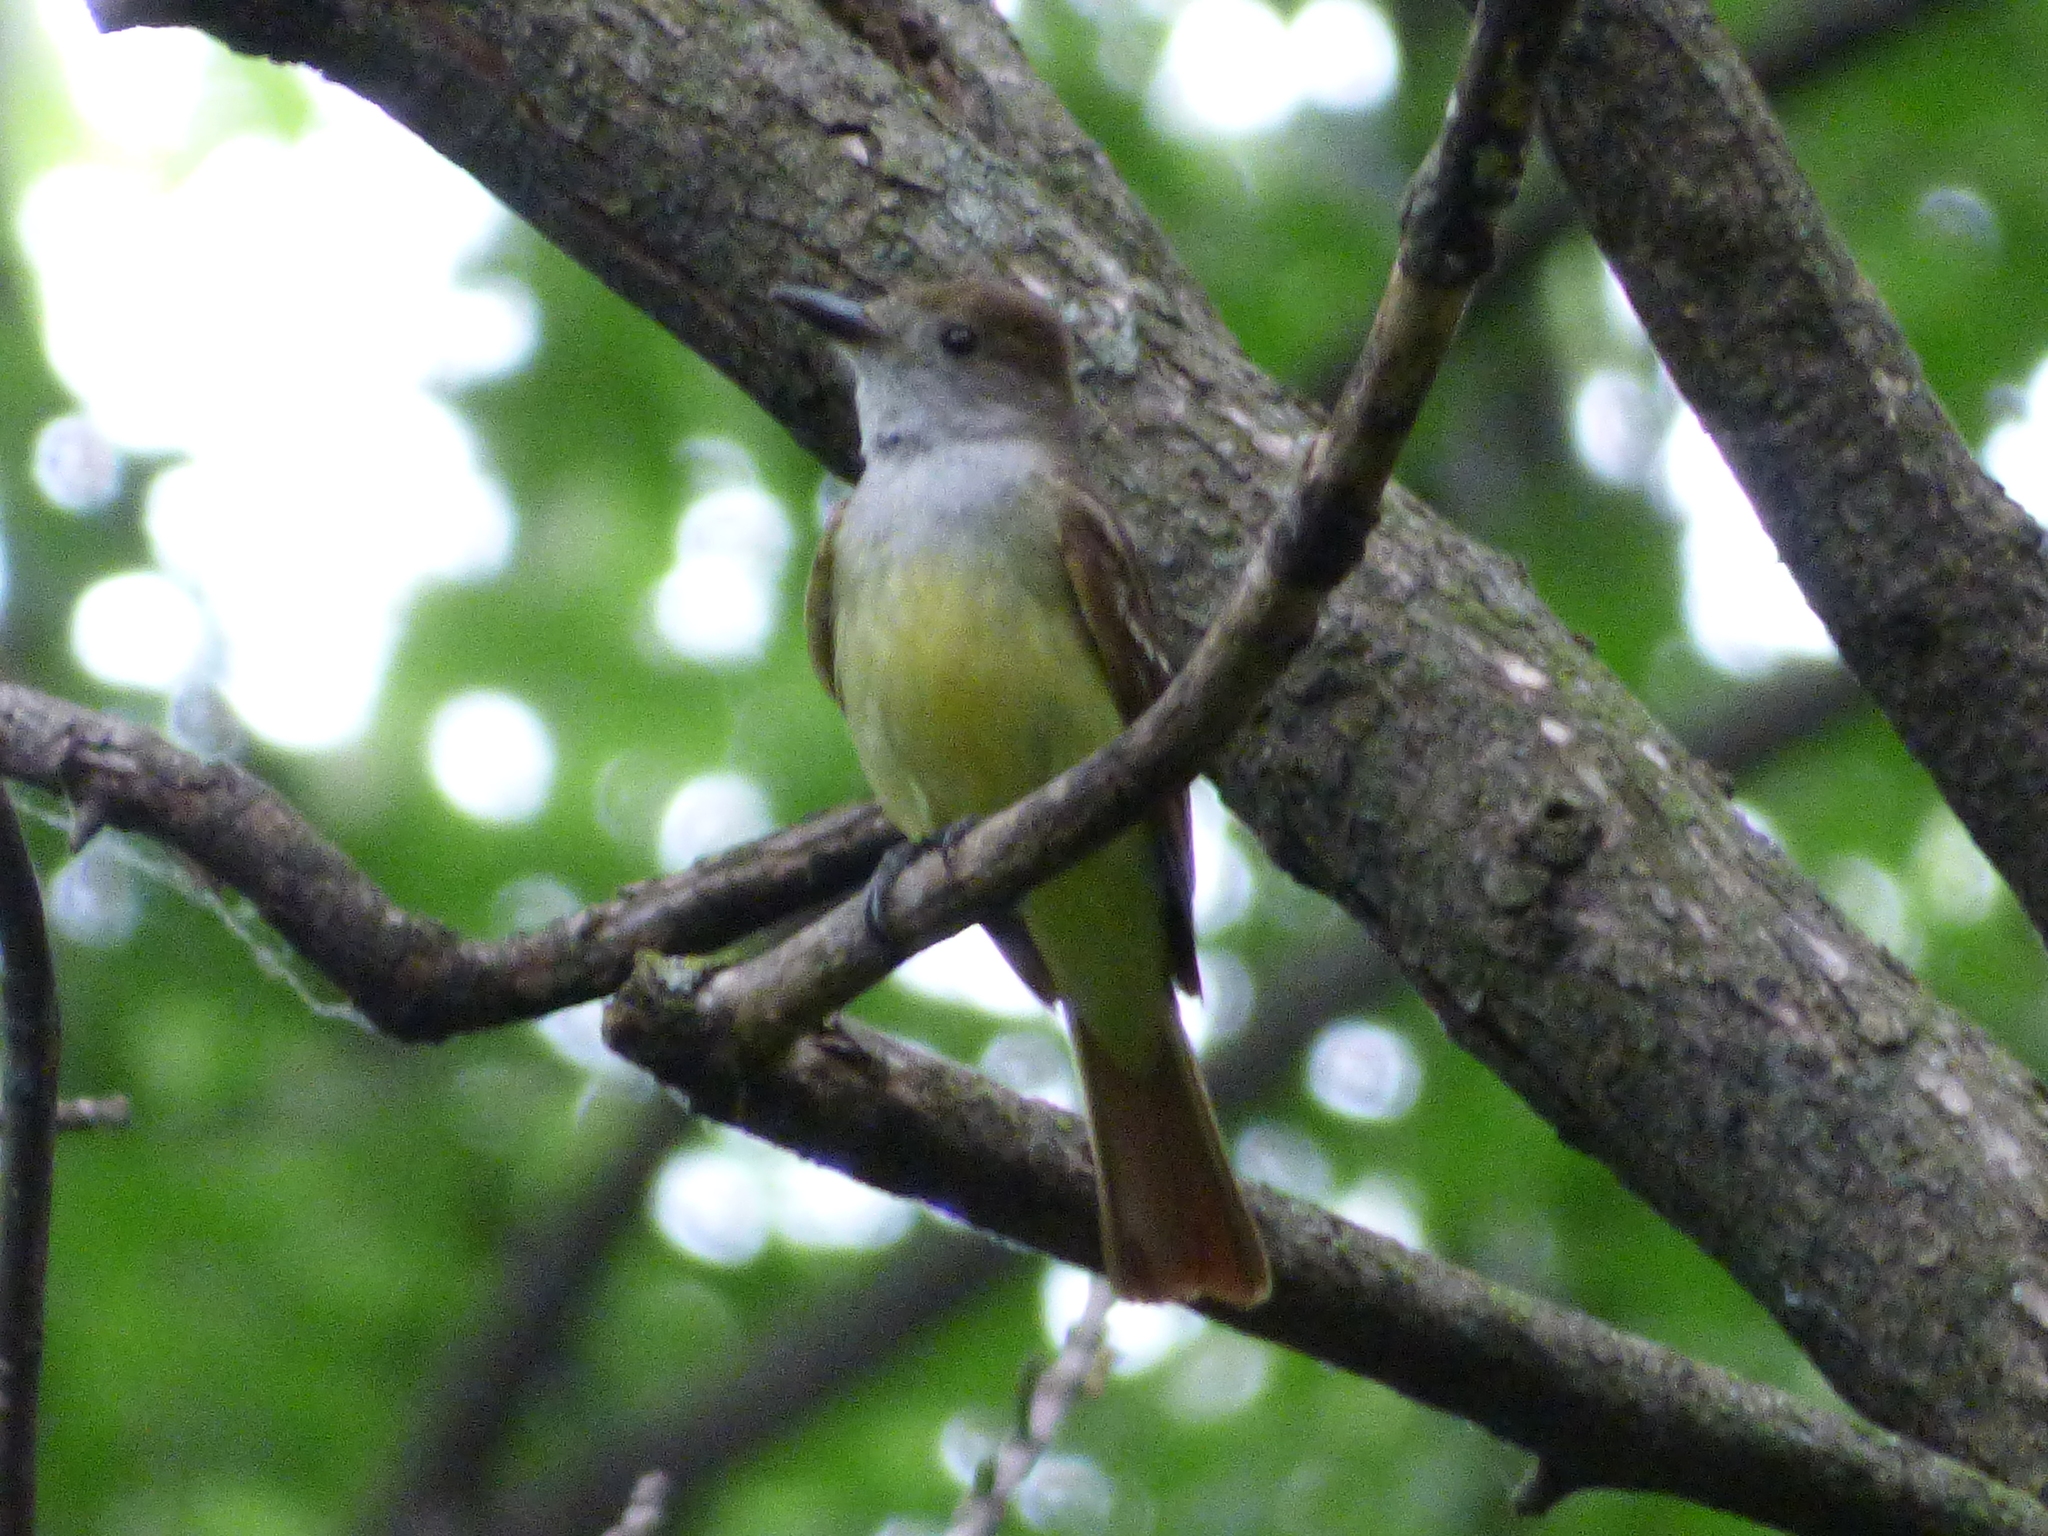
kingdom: Animalia
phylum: Chordata
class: Aves
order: Passeriformes
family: Tyrannidae
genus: Myiarchus
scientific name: Myiarchus crinitus
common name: Great crested flycatcher
